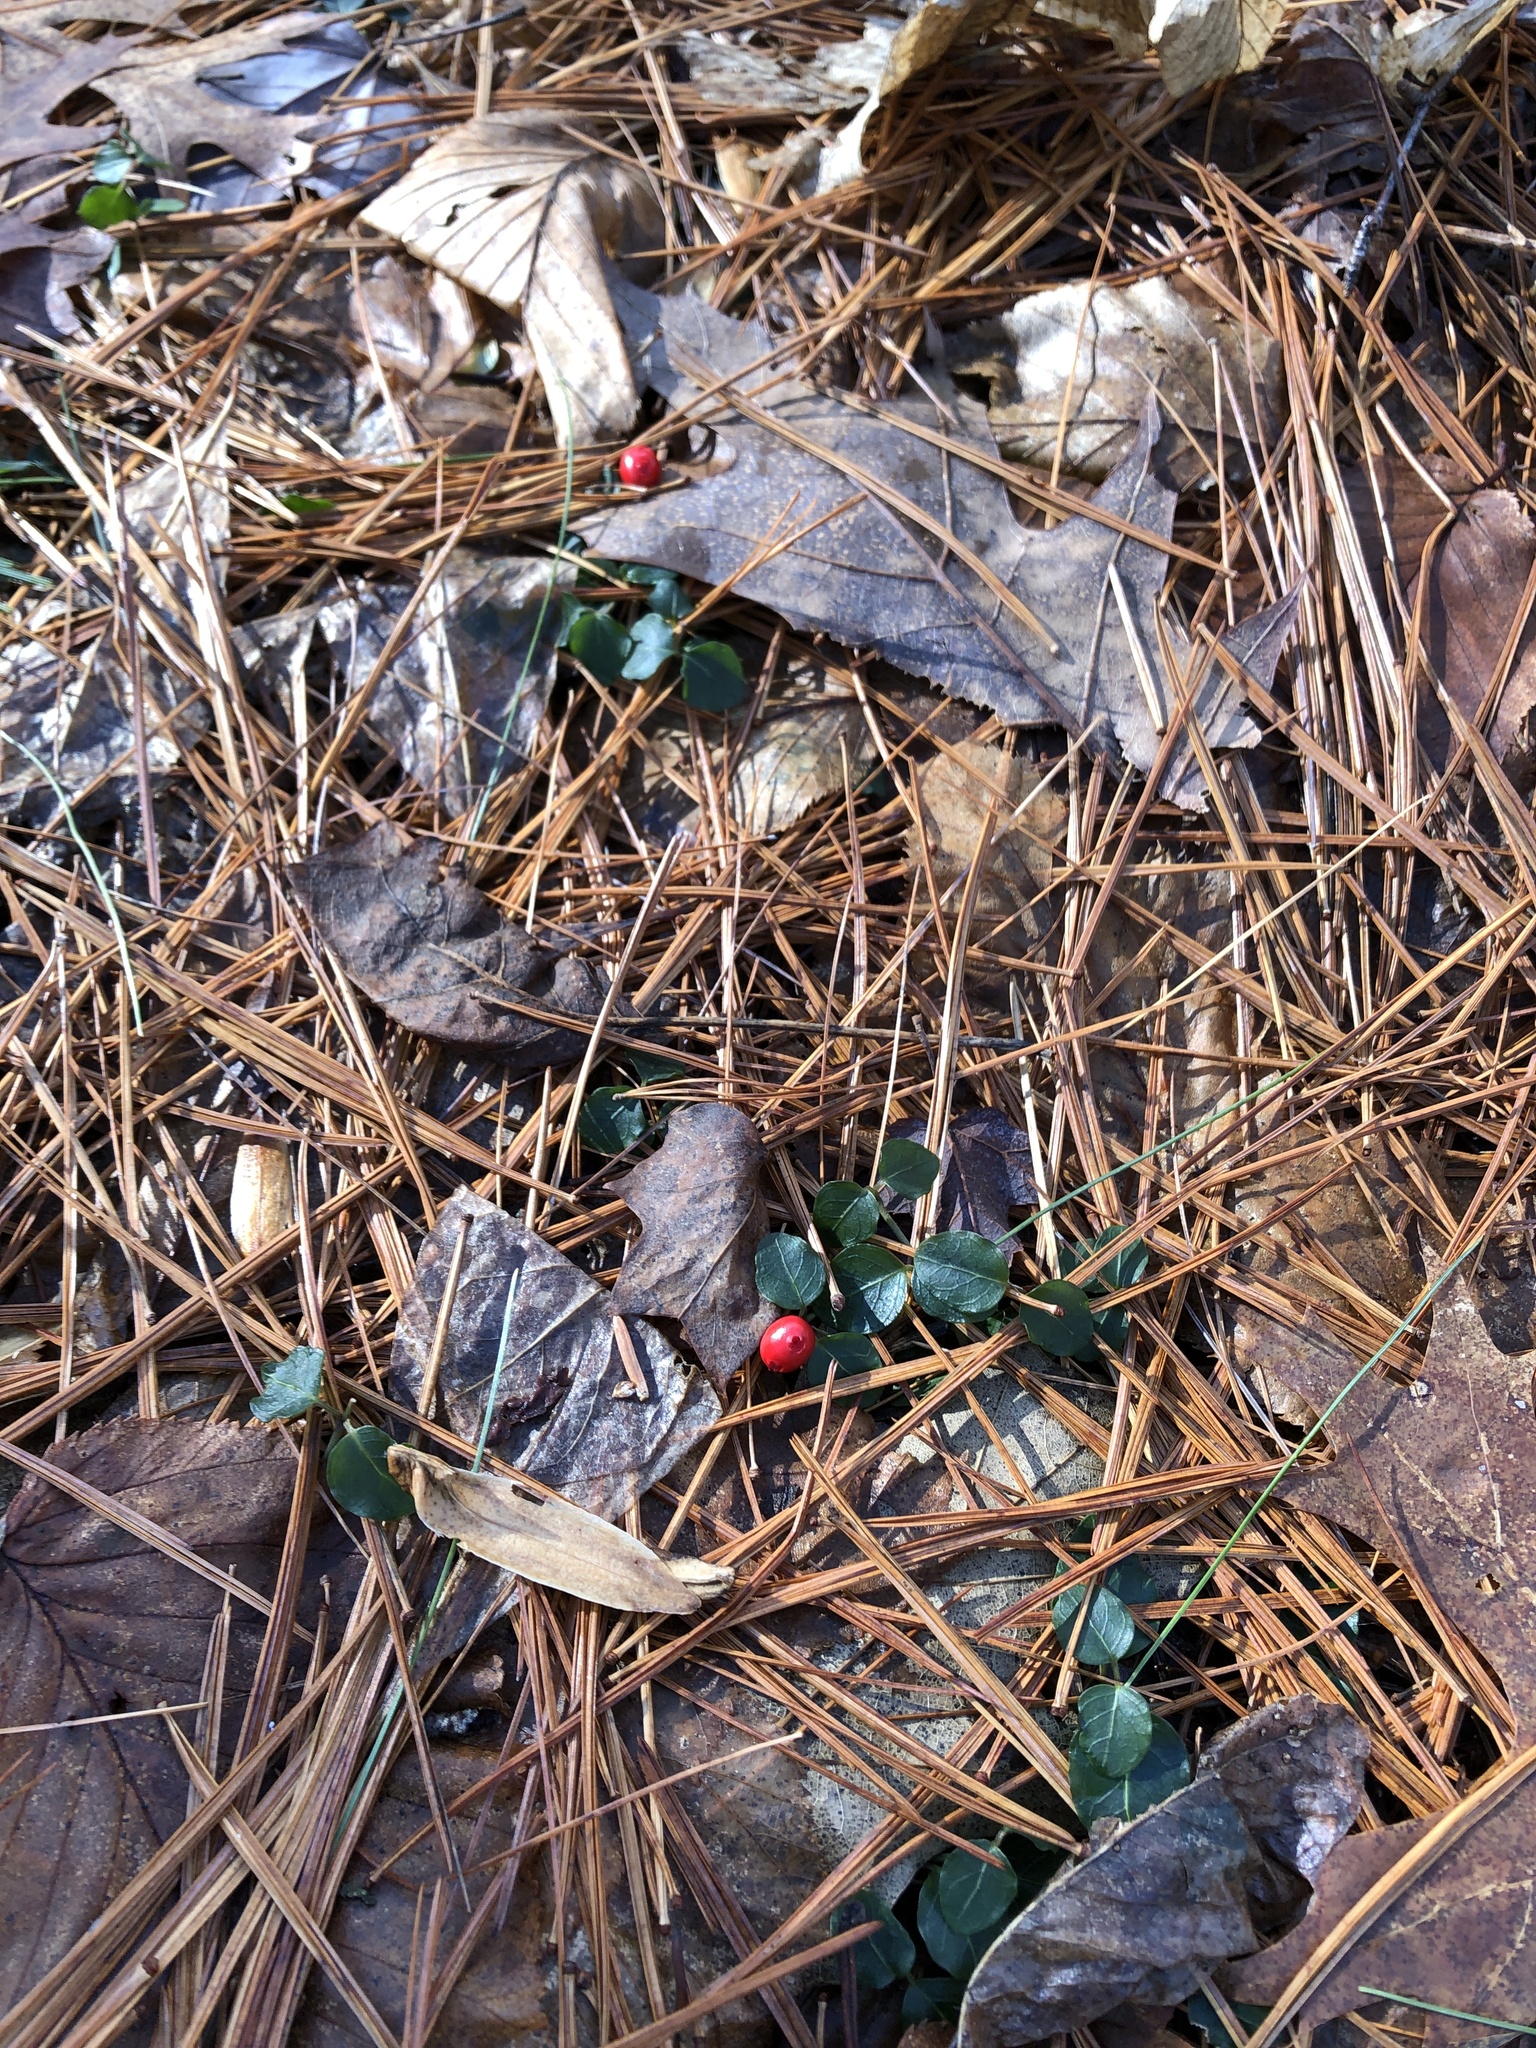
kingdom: Plantae
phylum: Tracheophyta
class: Magnoliopsida
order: Gentianales
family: Rubiaceae
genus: Mitchella
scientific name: Mitchella repens
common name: Partridge-berry
